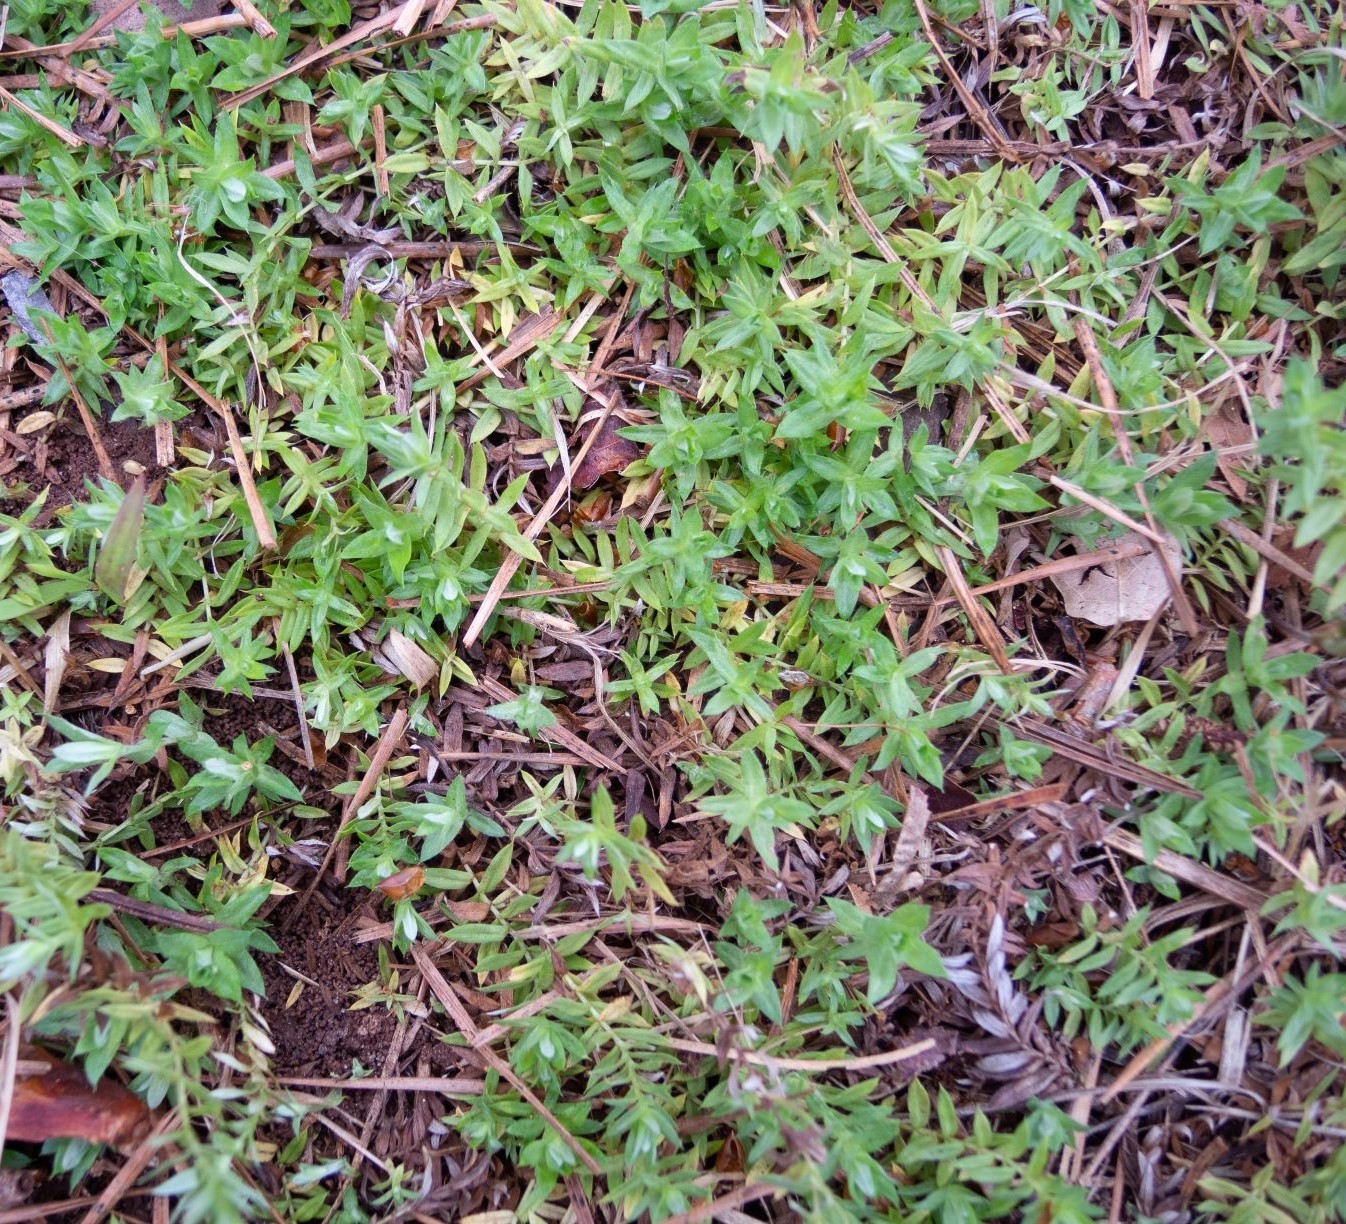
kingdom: Plantae
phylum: Tracheophyta
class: Magnoliopsida
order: Asterales
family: Asteraceae
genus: Chevreulia
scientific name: Chevreulia acuminata
